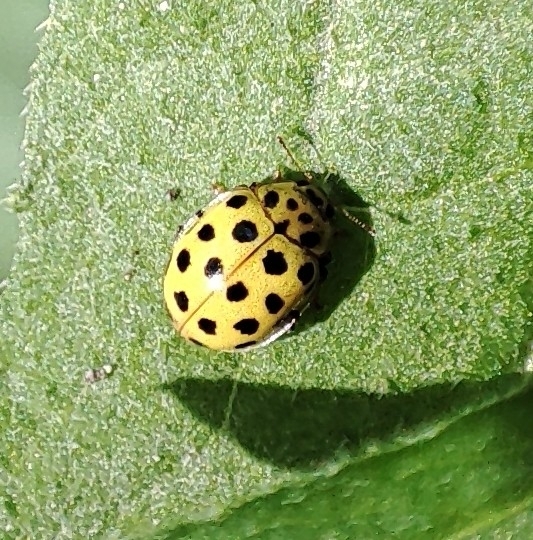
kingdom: Animalia
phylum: Arthropoda
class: Insecta
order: Coleoptera
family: Coccinellidae
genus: Psyllobora
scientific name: Psyllobora vigintiduopunctata
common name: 22-spot ladybird
